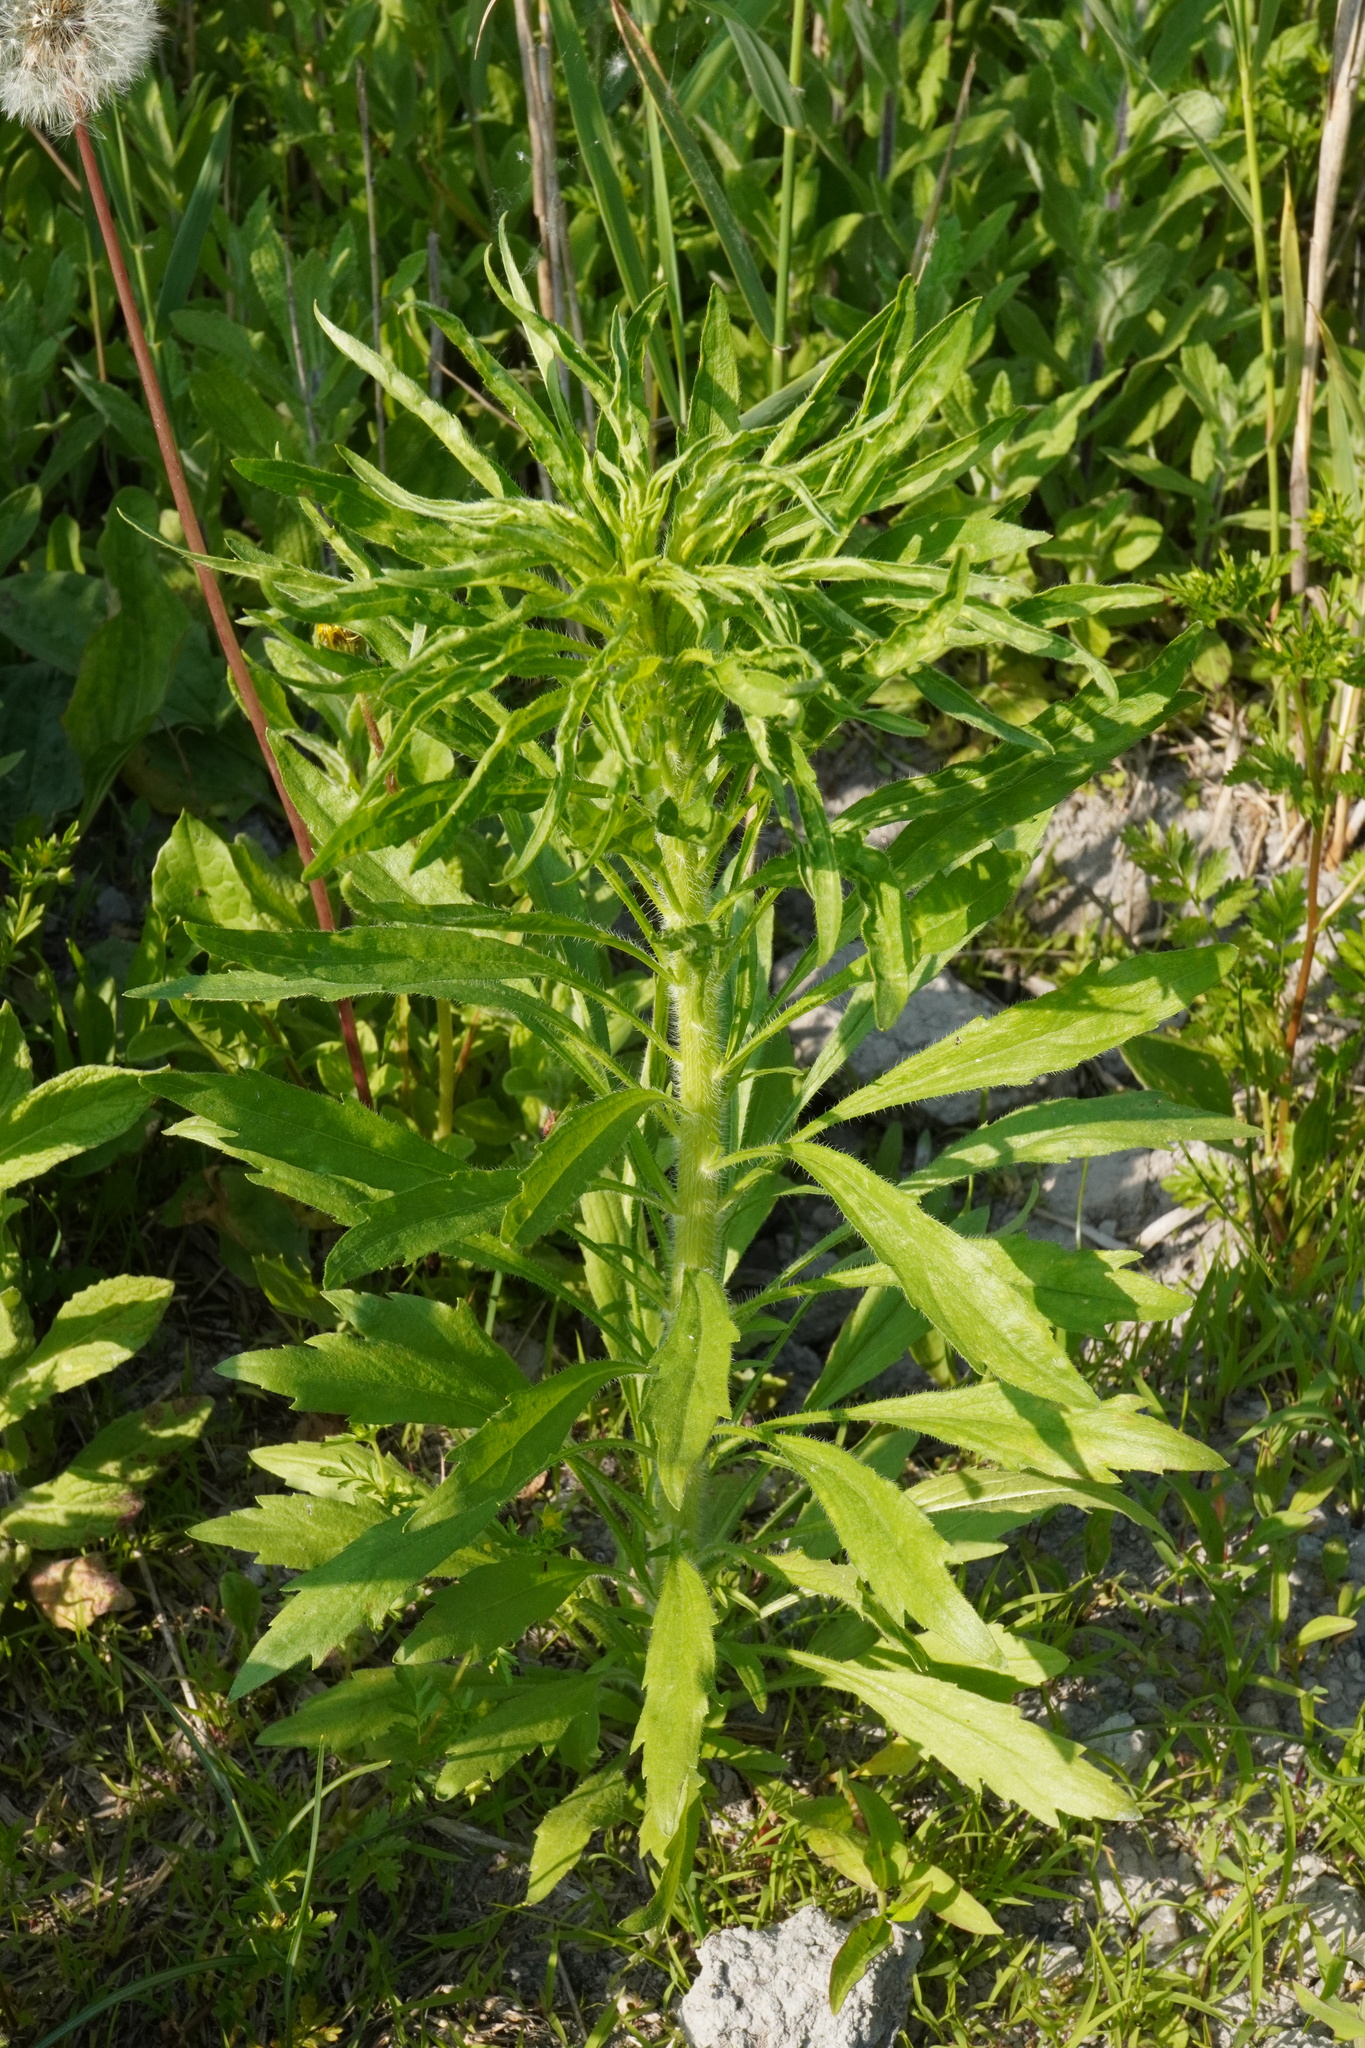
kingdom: Plantae
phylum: Tracheophyta
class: Magnoliopsida
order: Asterales
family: Asteraceae
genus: Erigeron
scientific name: Erigeron canadensis
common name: Canadian fleabane
